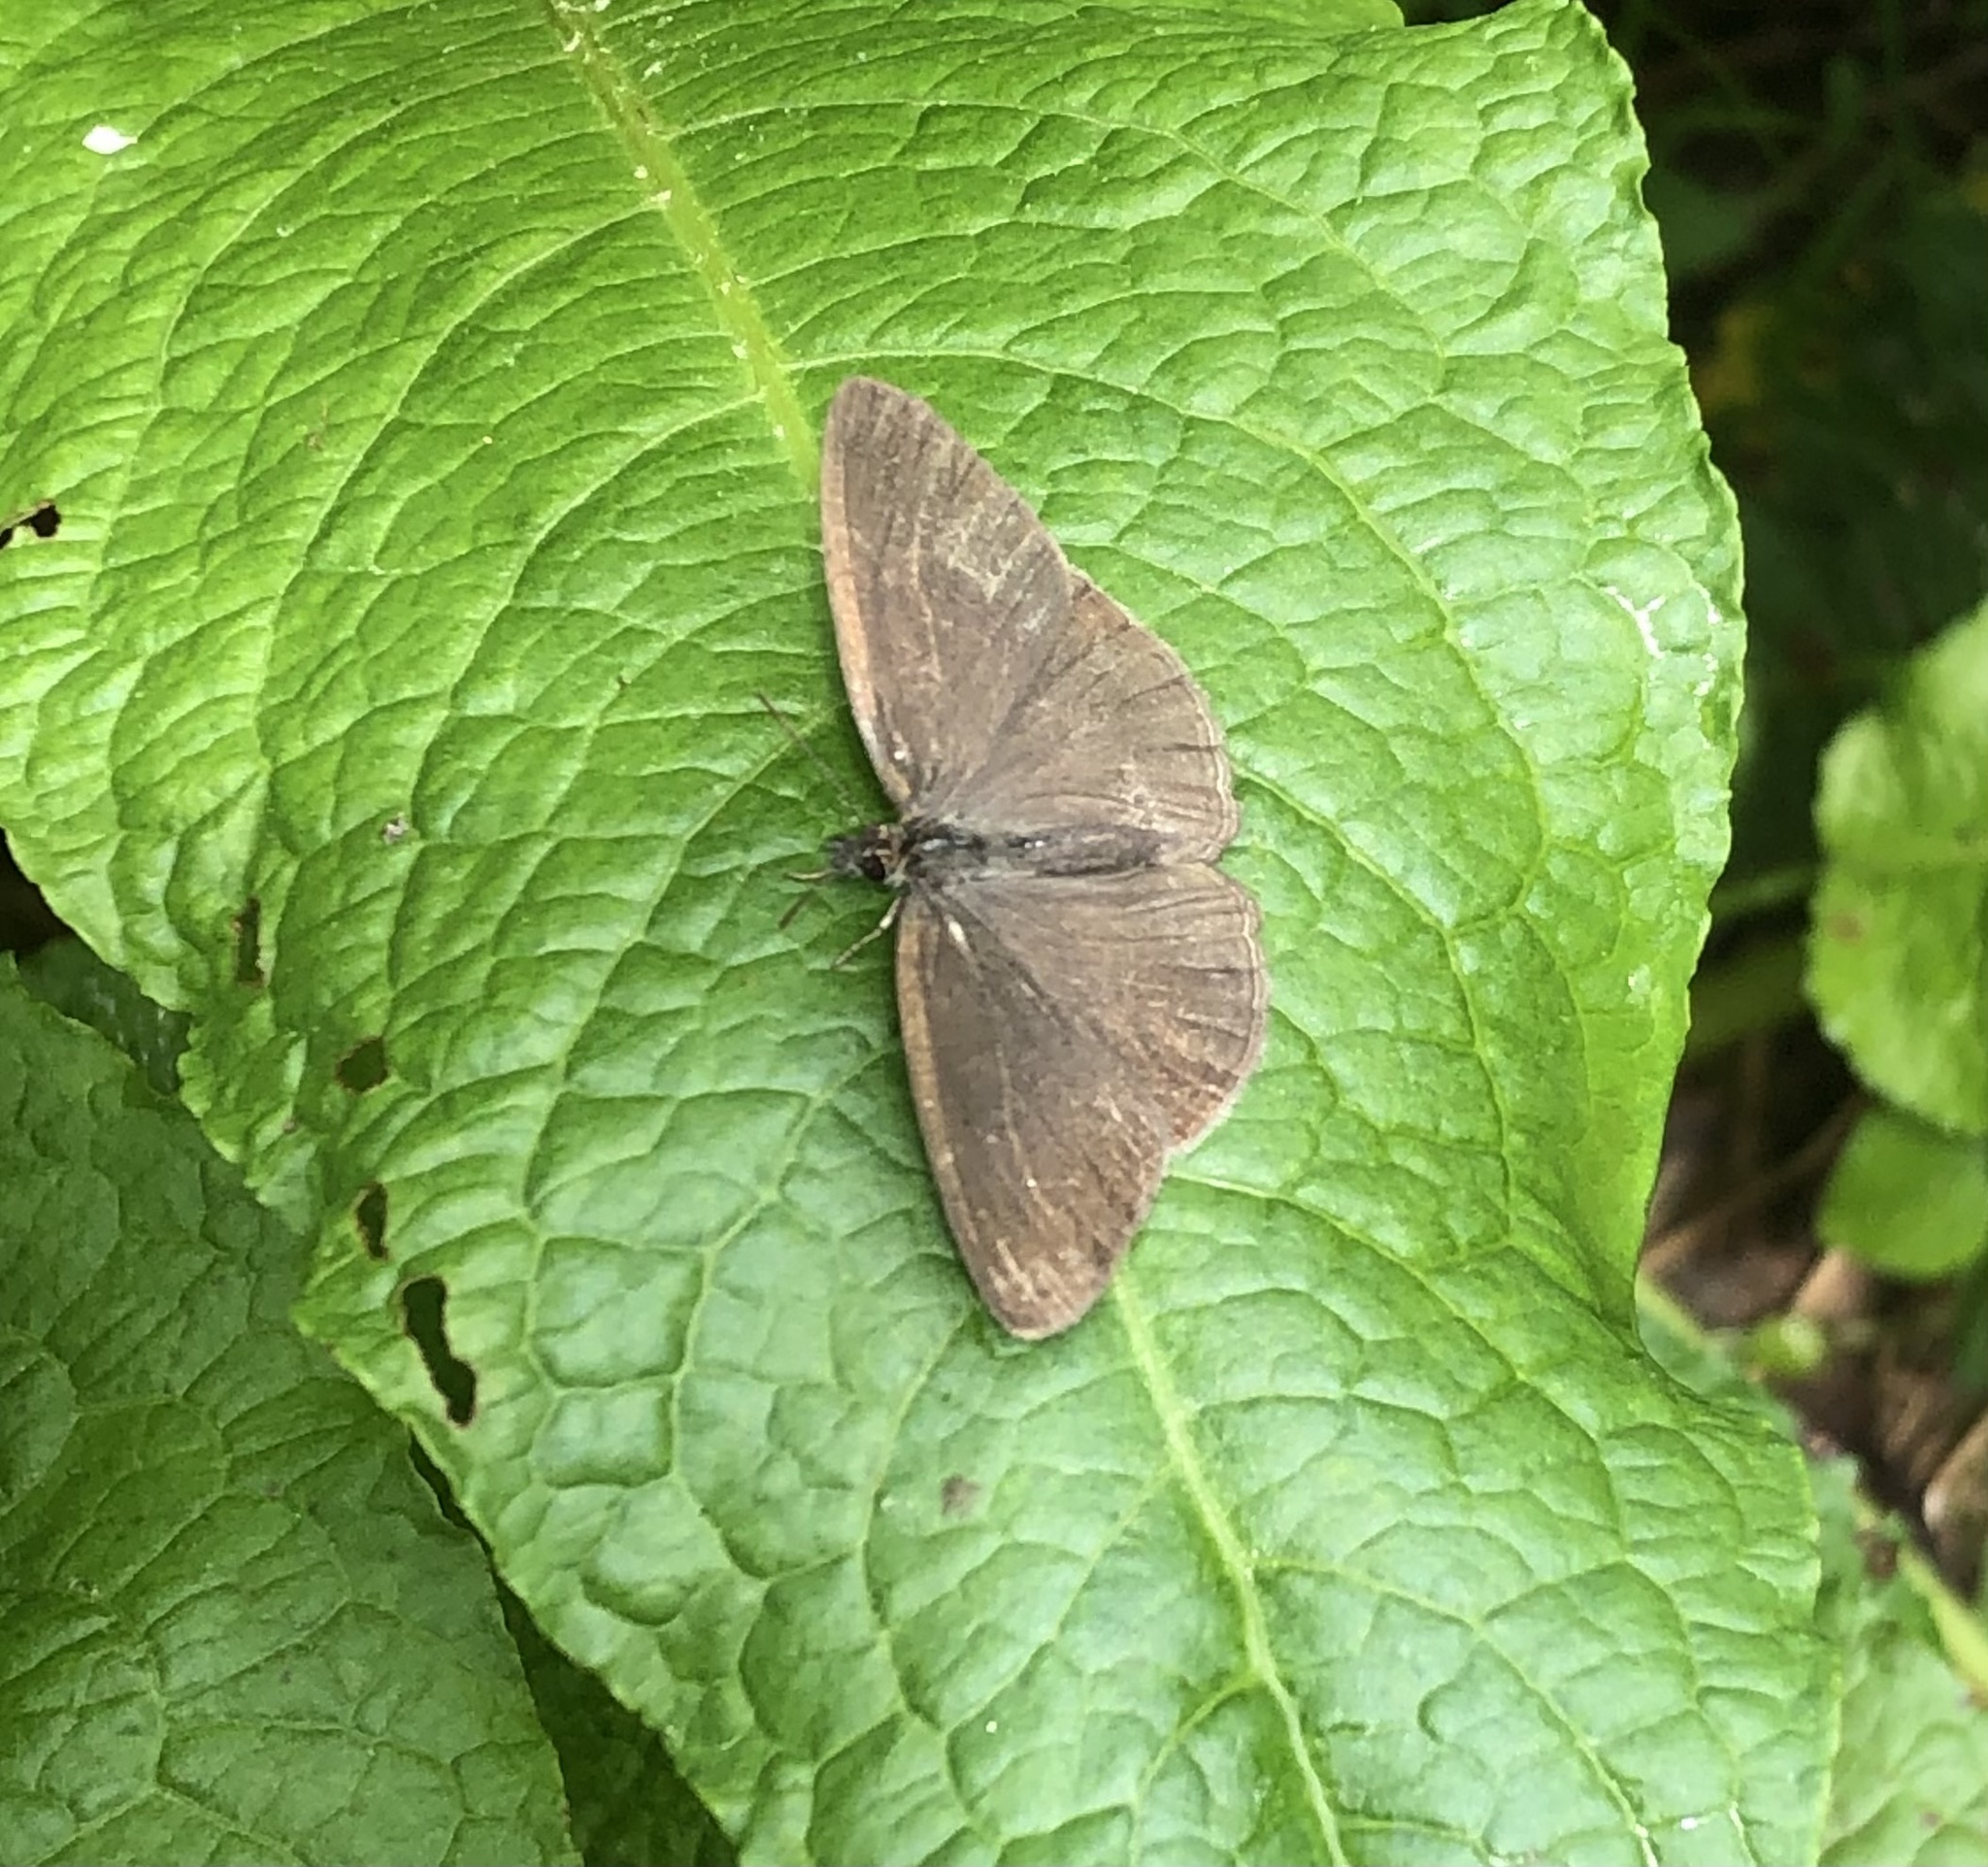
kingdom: Animalia
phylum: Arthropoda
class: Insecta
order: Lepidoptera
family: Nymphalidae
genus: Hermeuptychia
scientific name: Hermeuptychia hermes
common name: Hermes satyr
